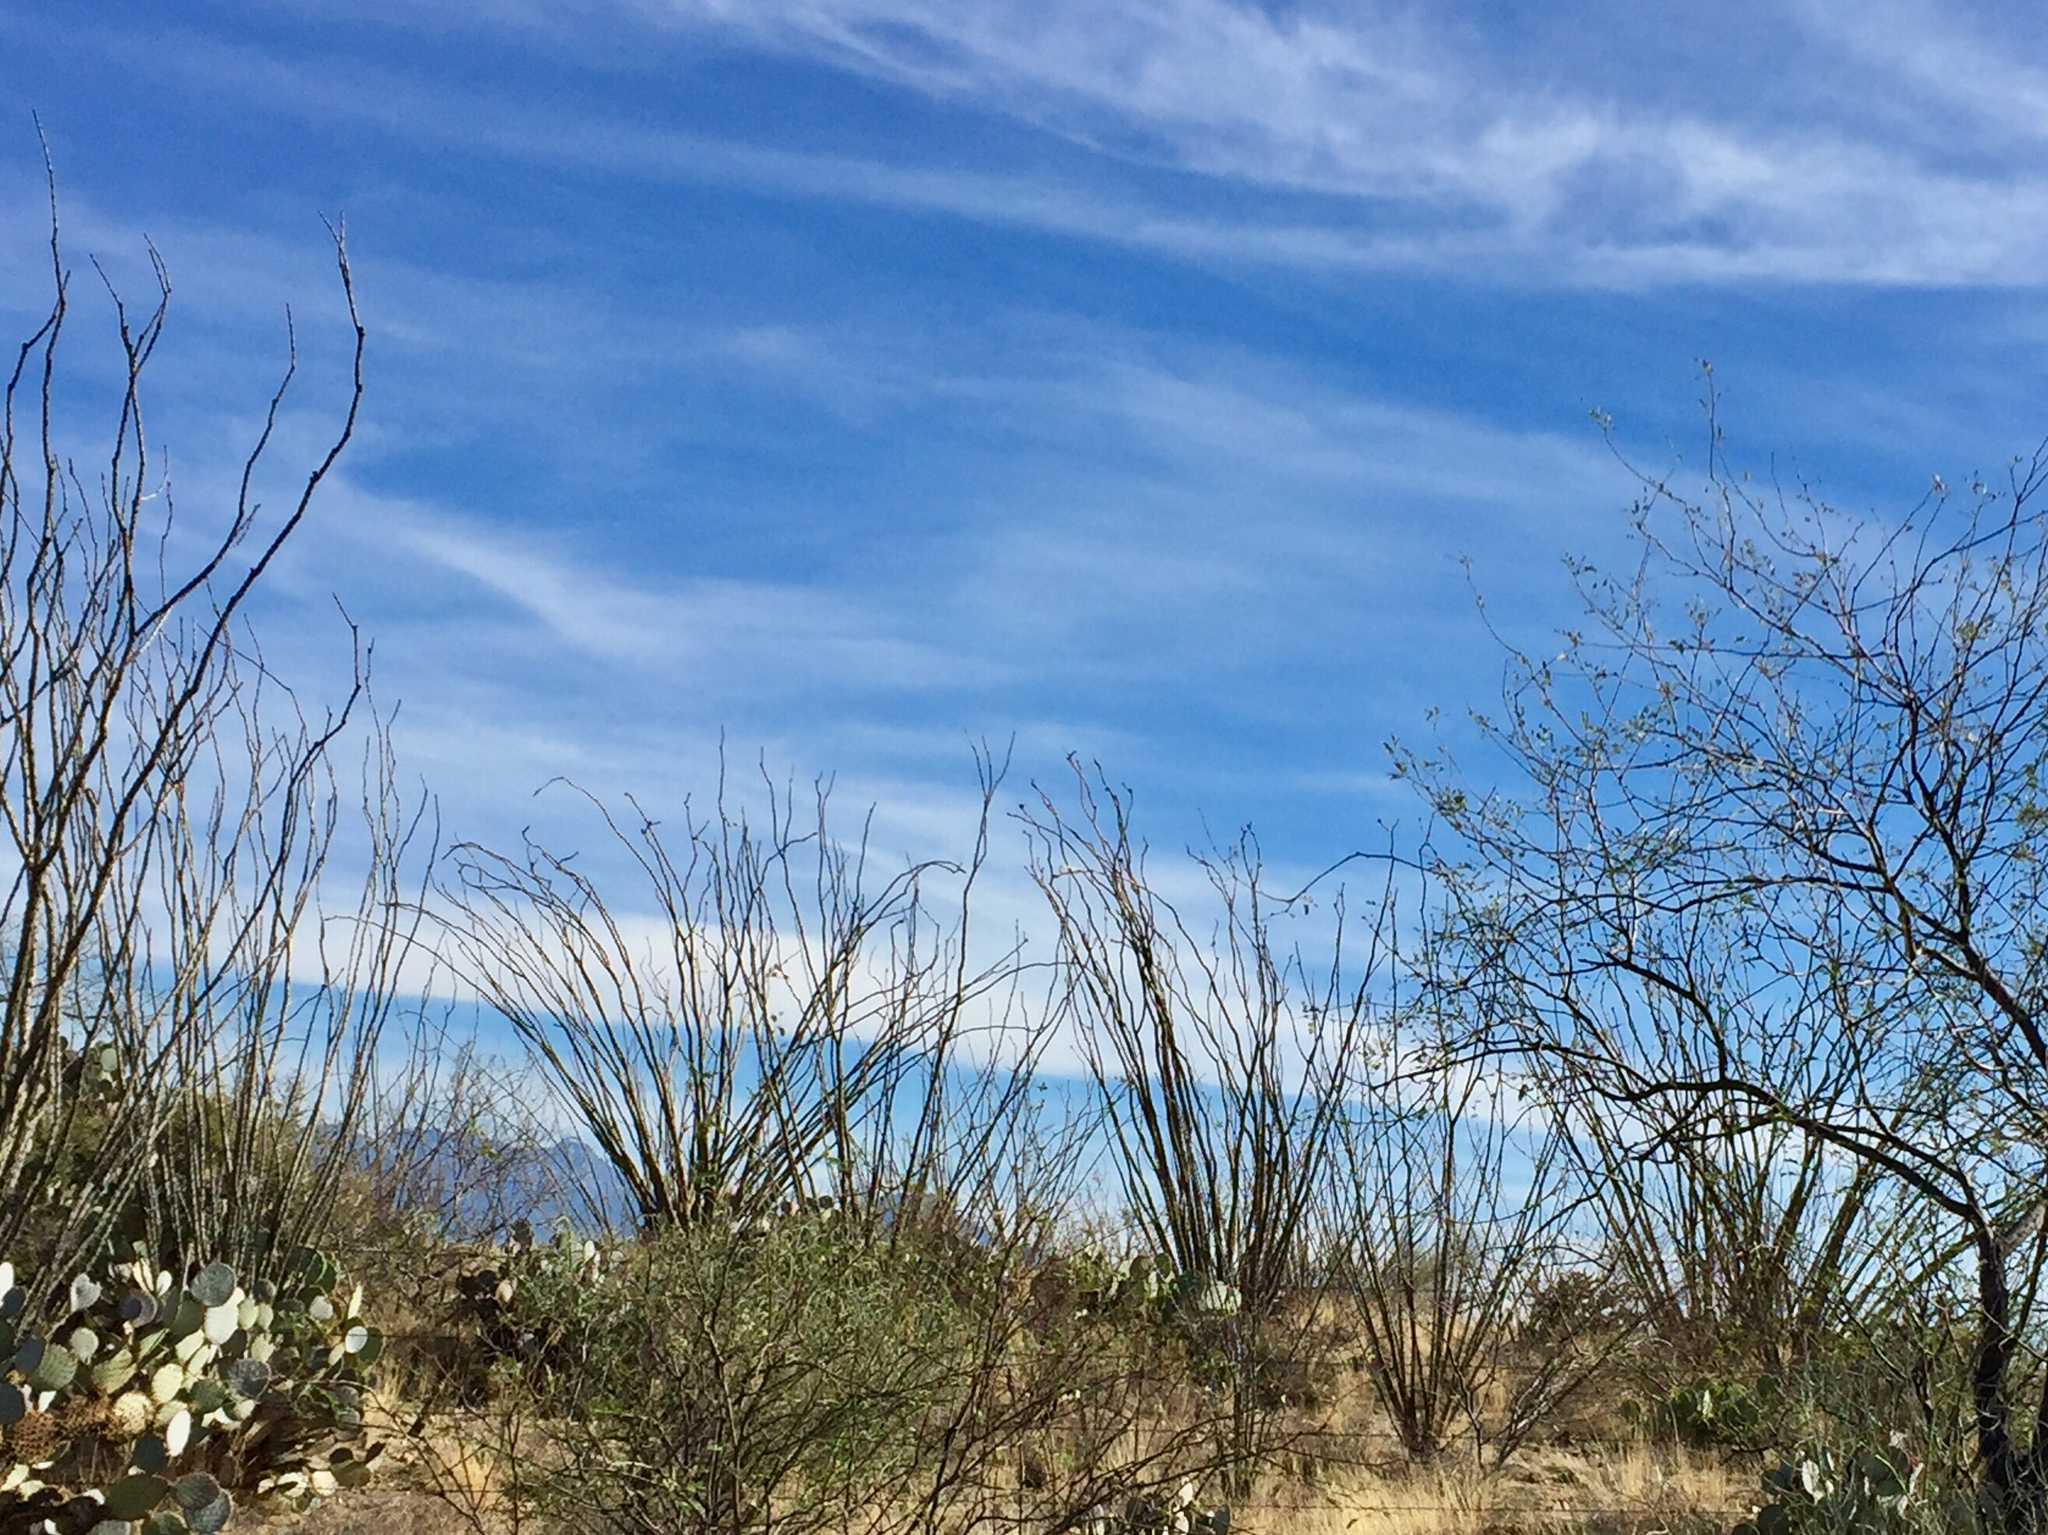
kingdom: Plantae
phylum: Tracheophyta
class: Magnoliopsida
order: Ericales
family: Fouquieriaceae
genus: Fouquieria
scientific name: Fouquieria splendens
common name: Vine-cactus
